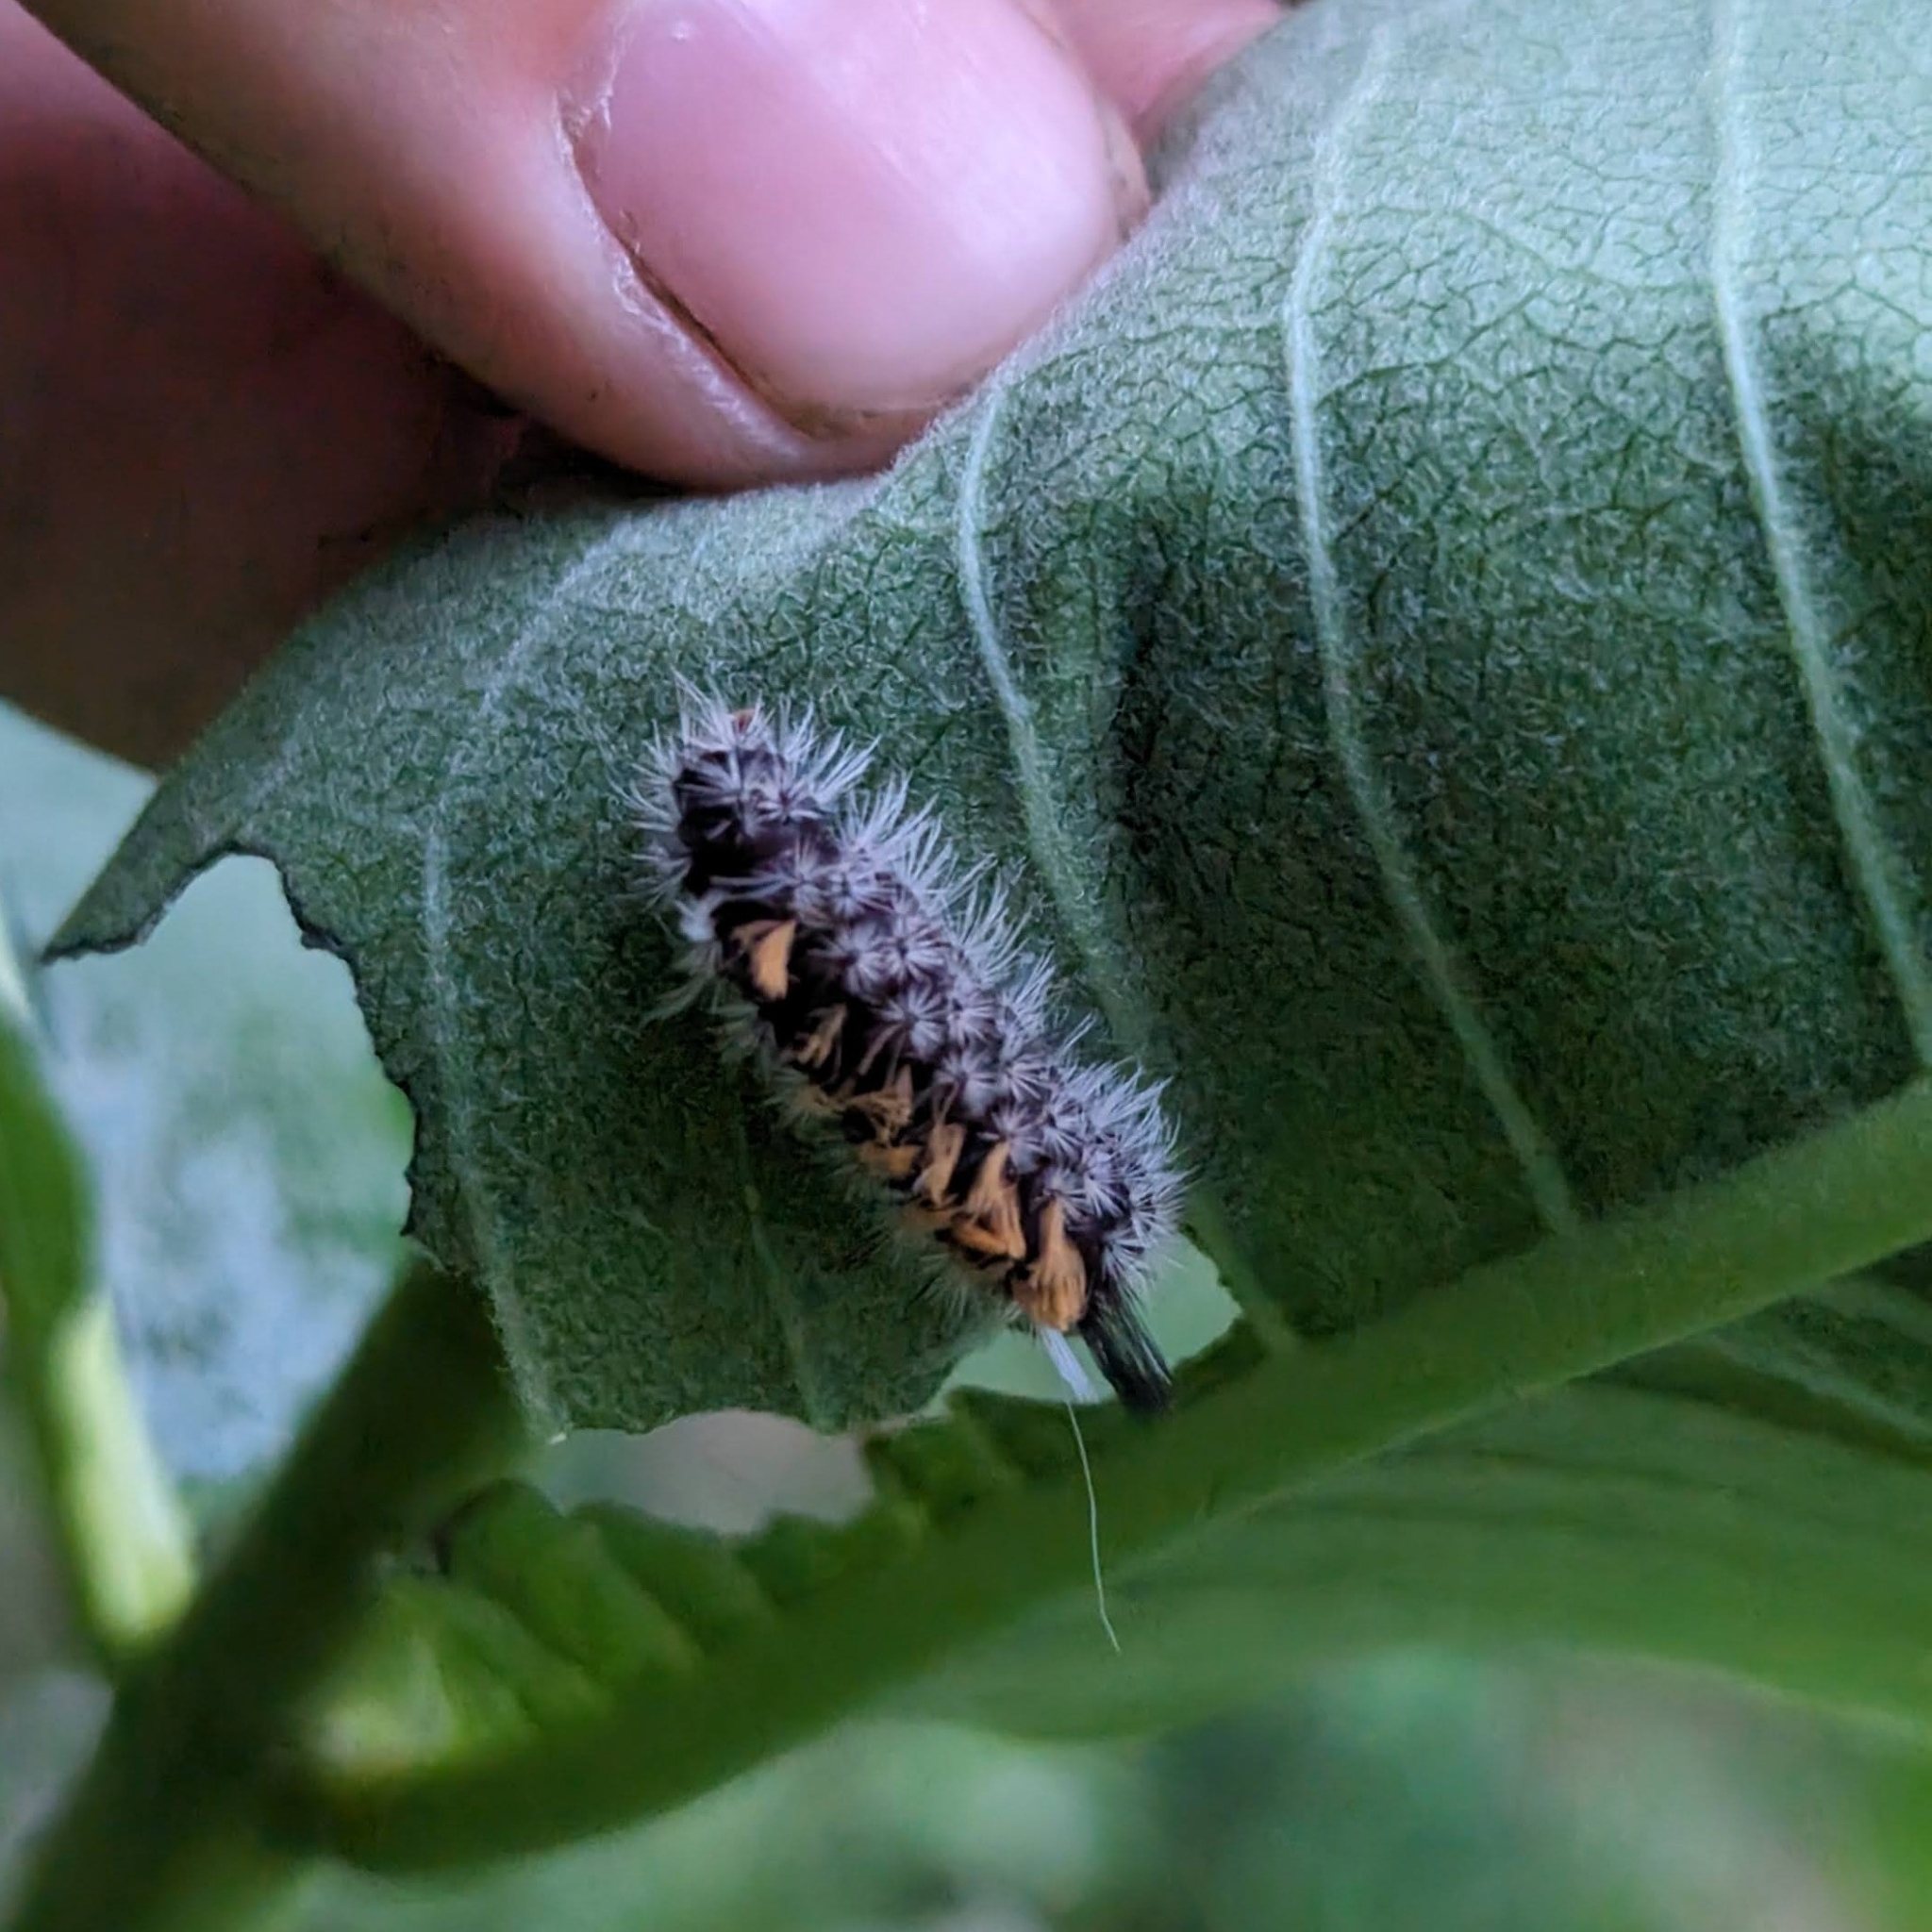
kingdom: Animalia
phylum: Arthropoda
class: Insecta
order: Lepidoptera
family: Erebidae
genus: Euchaetes
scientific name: Euchaetes egle
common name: Milkweed tussock moth
